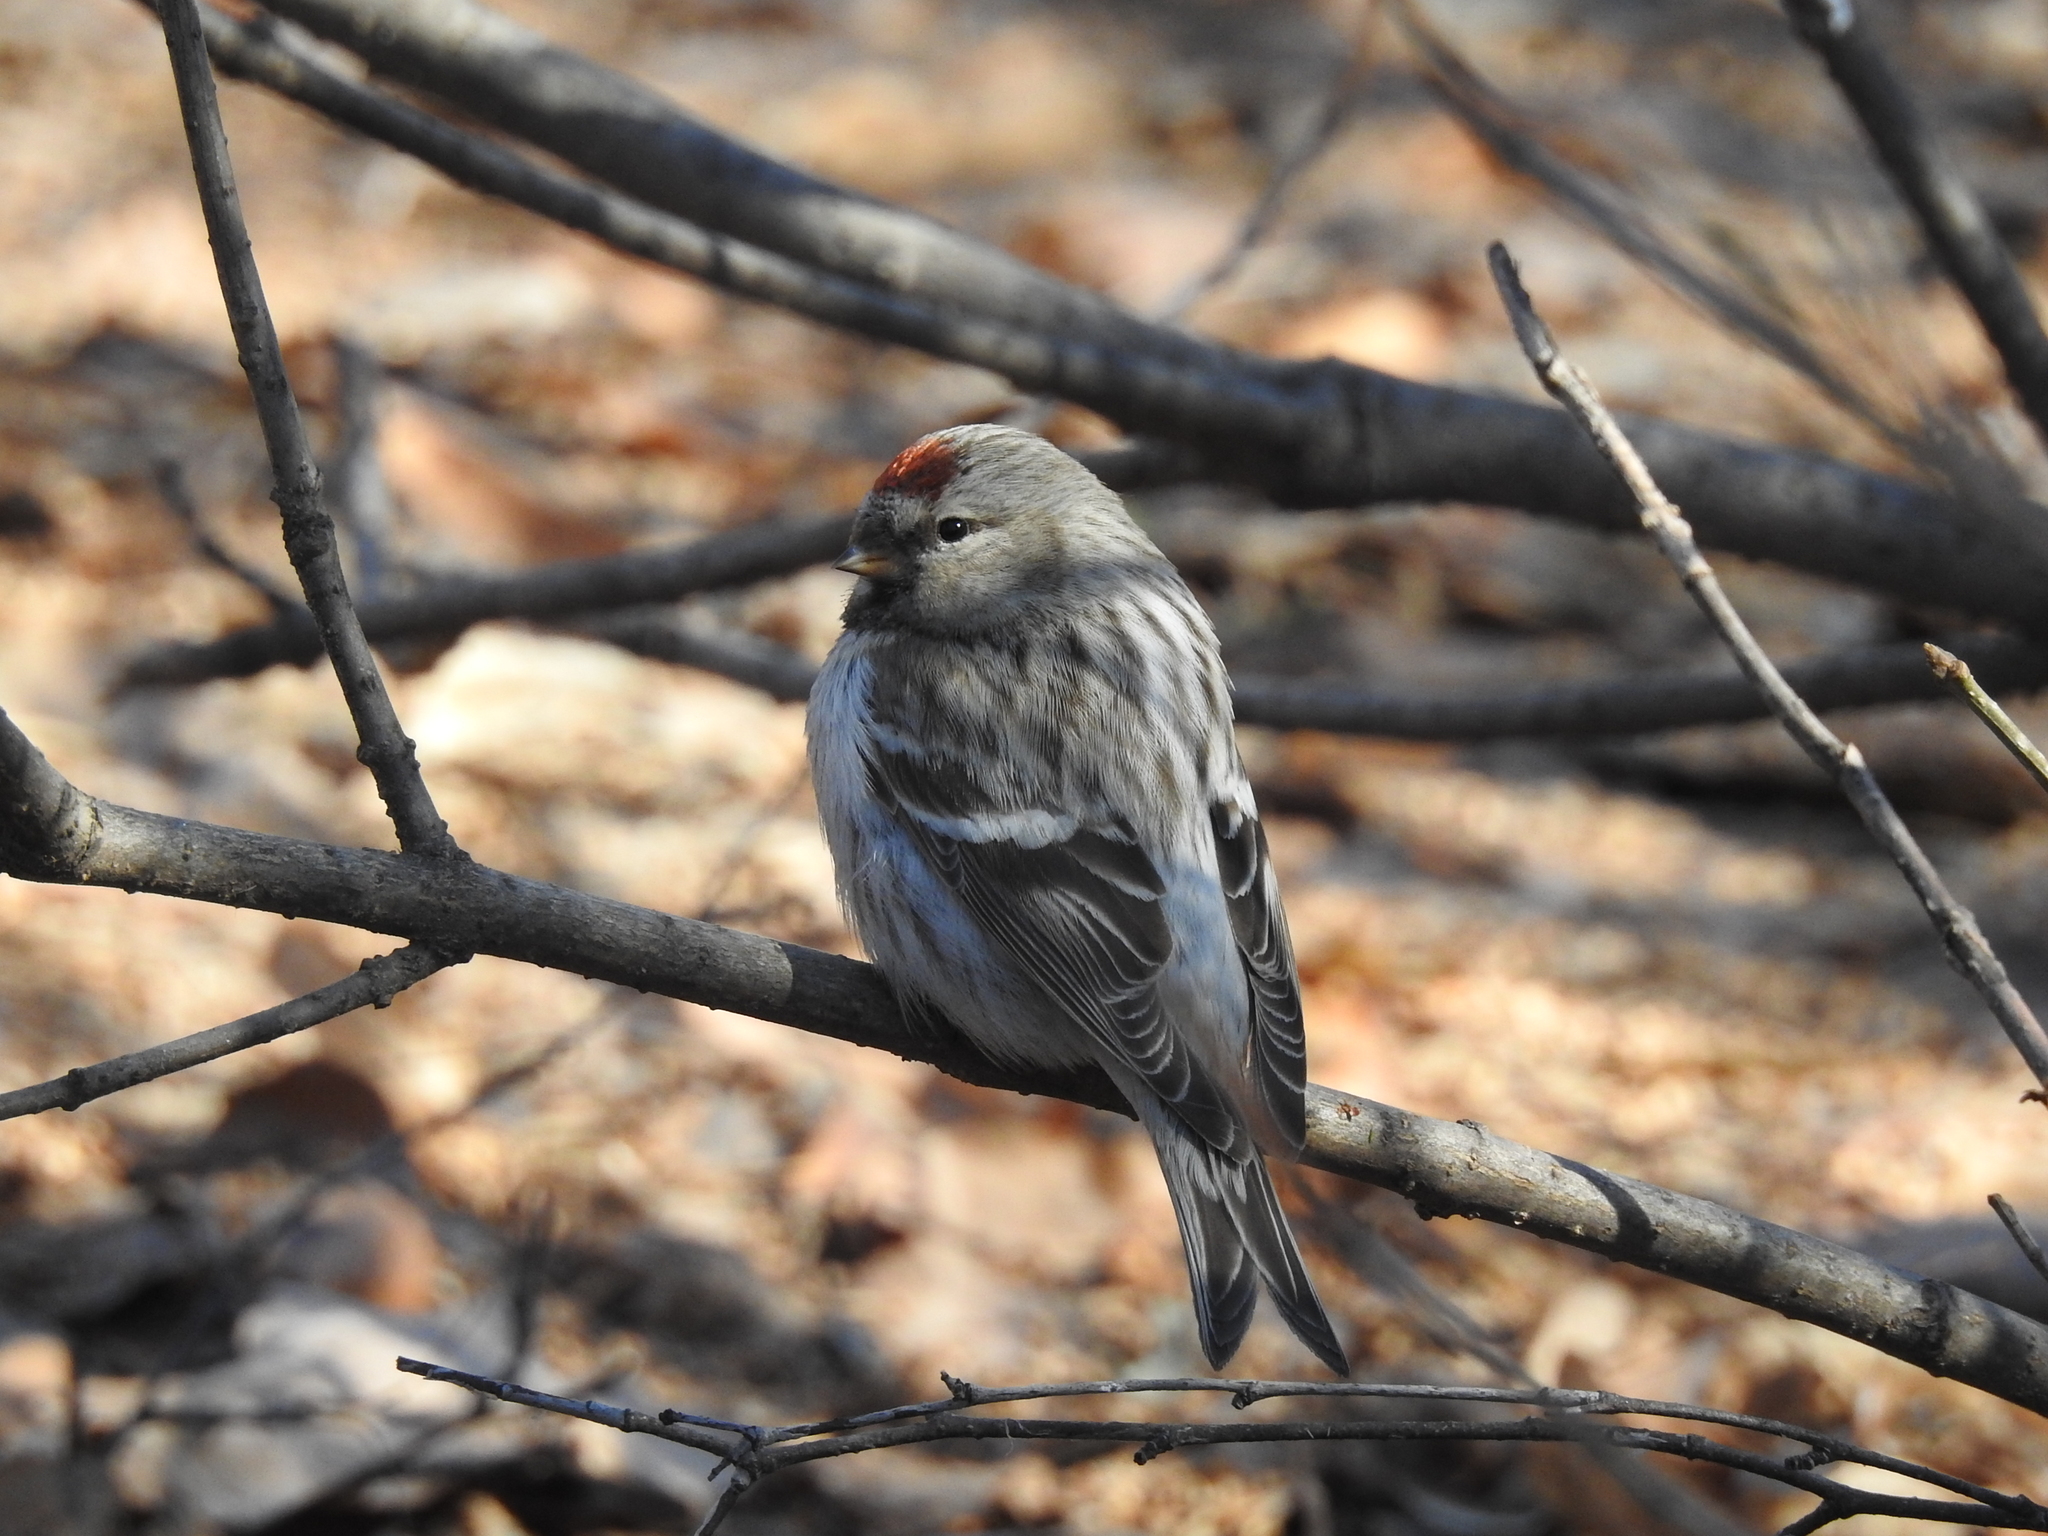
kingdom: Animalia
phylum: Chordata
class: Aves
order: Passeriformes
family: Fringillidae
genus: Acanthis
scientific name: Acanthis flammea
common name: Common redpoll
